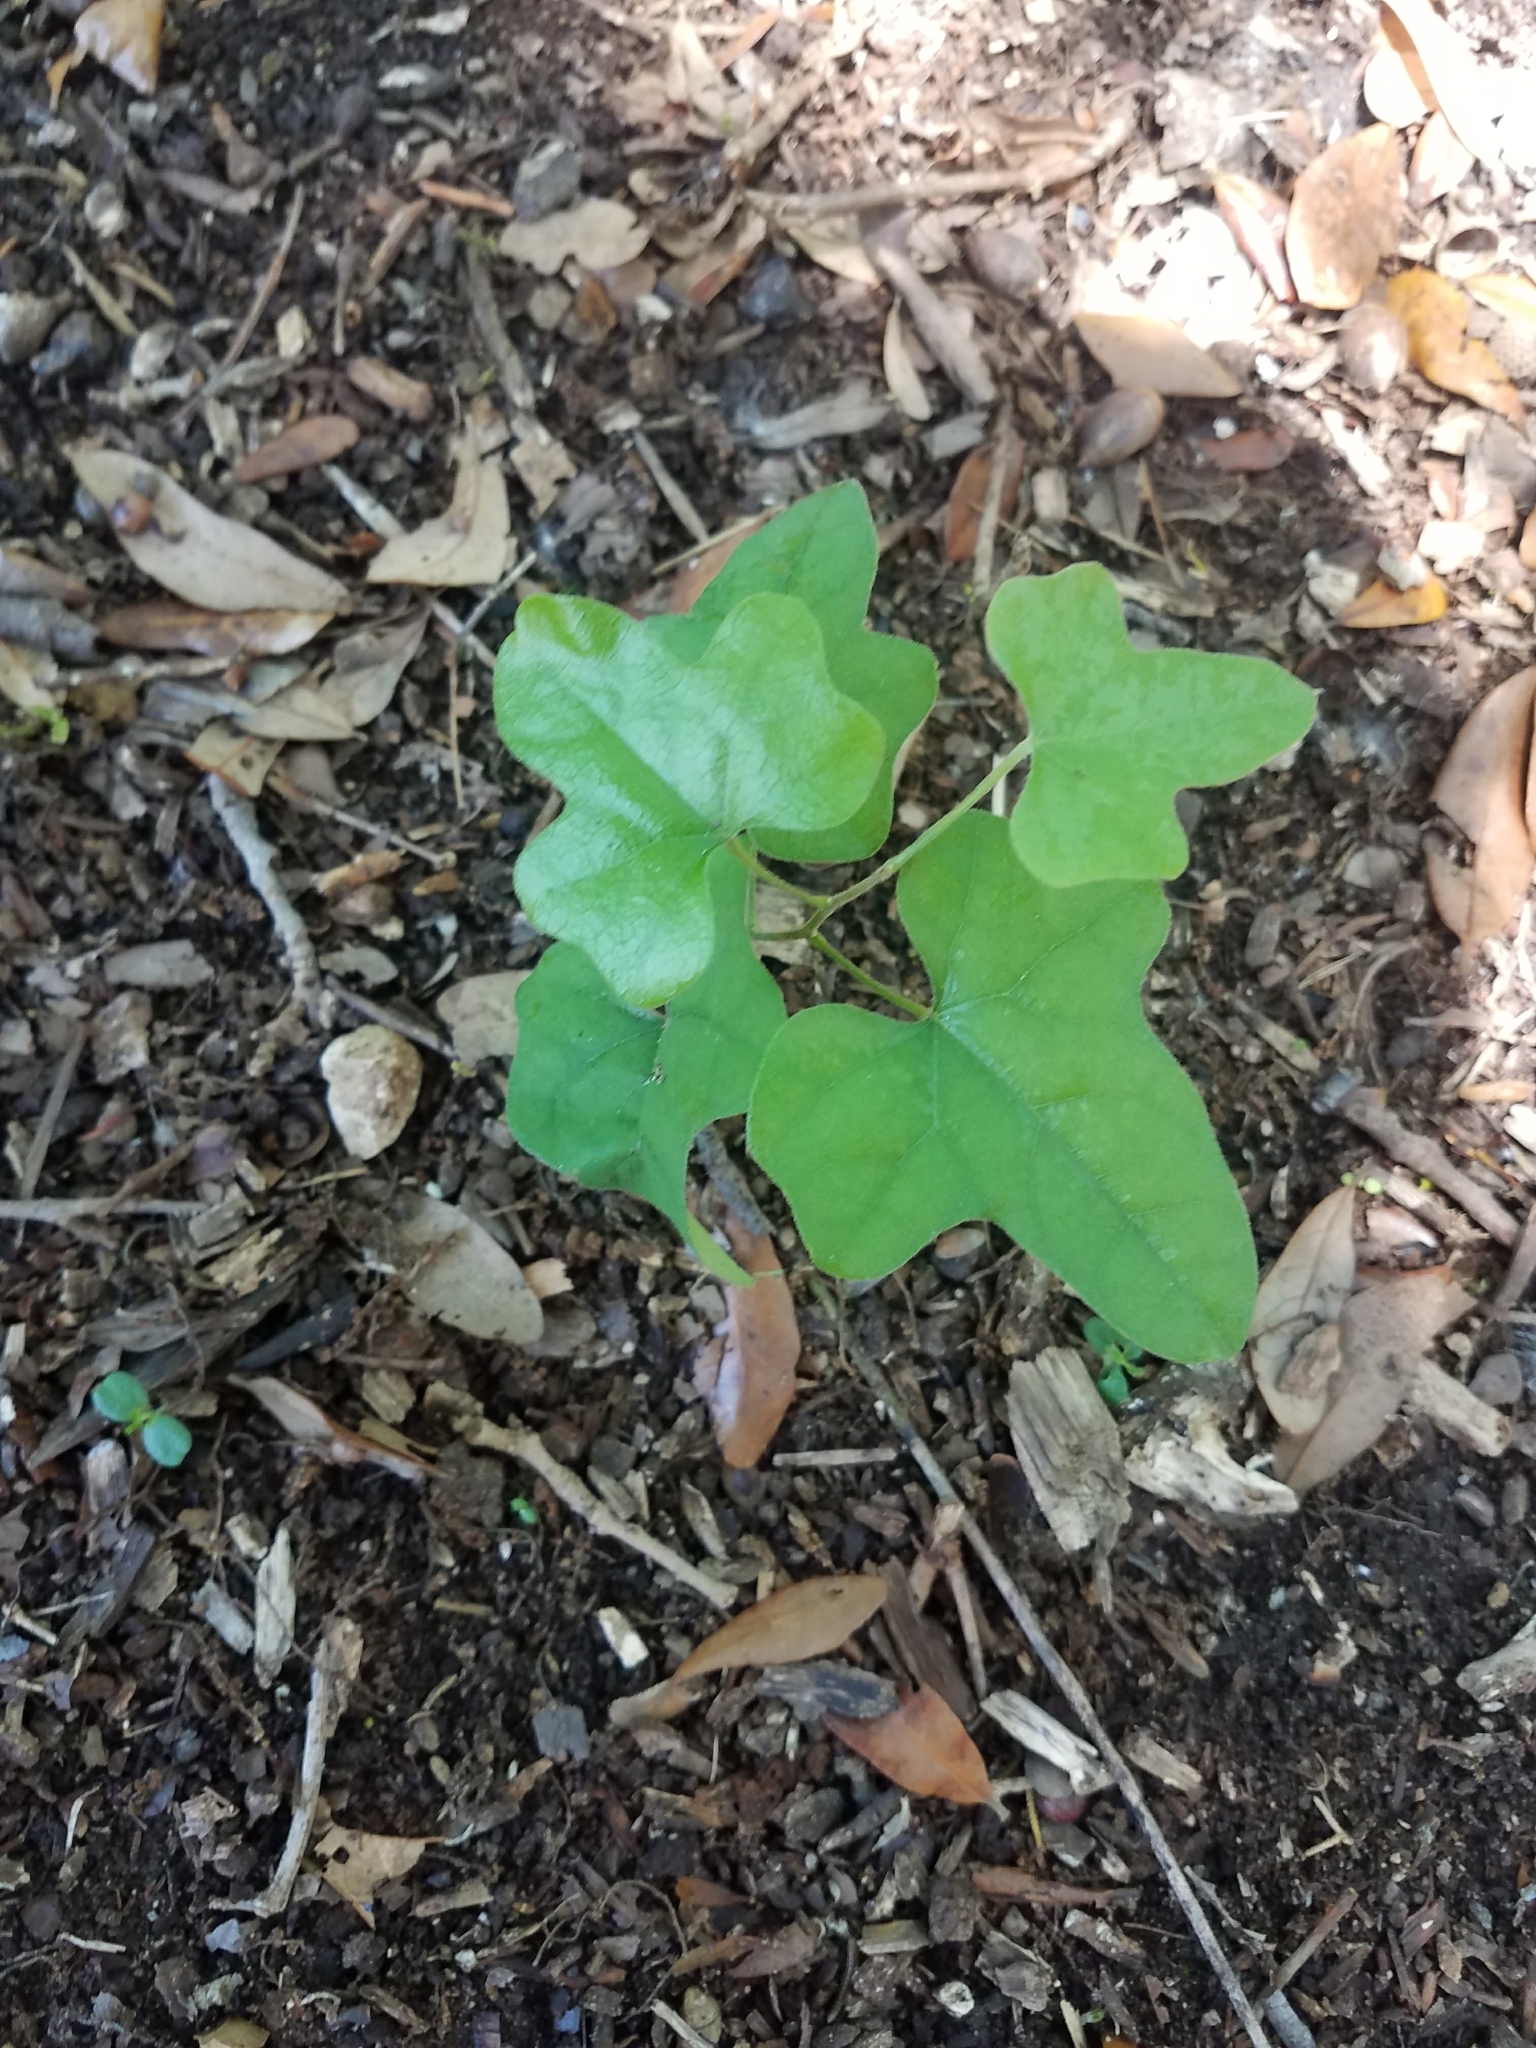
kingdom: Plantae
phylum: Tracheophyta
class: Magnoliopsida
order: Ranunculales
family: Menispermaceae
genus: Cocculus
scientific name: Cocculus carolinus
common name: Carolina moonseed
